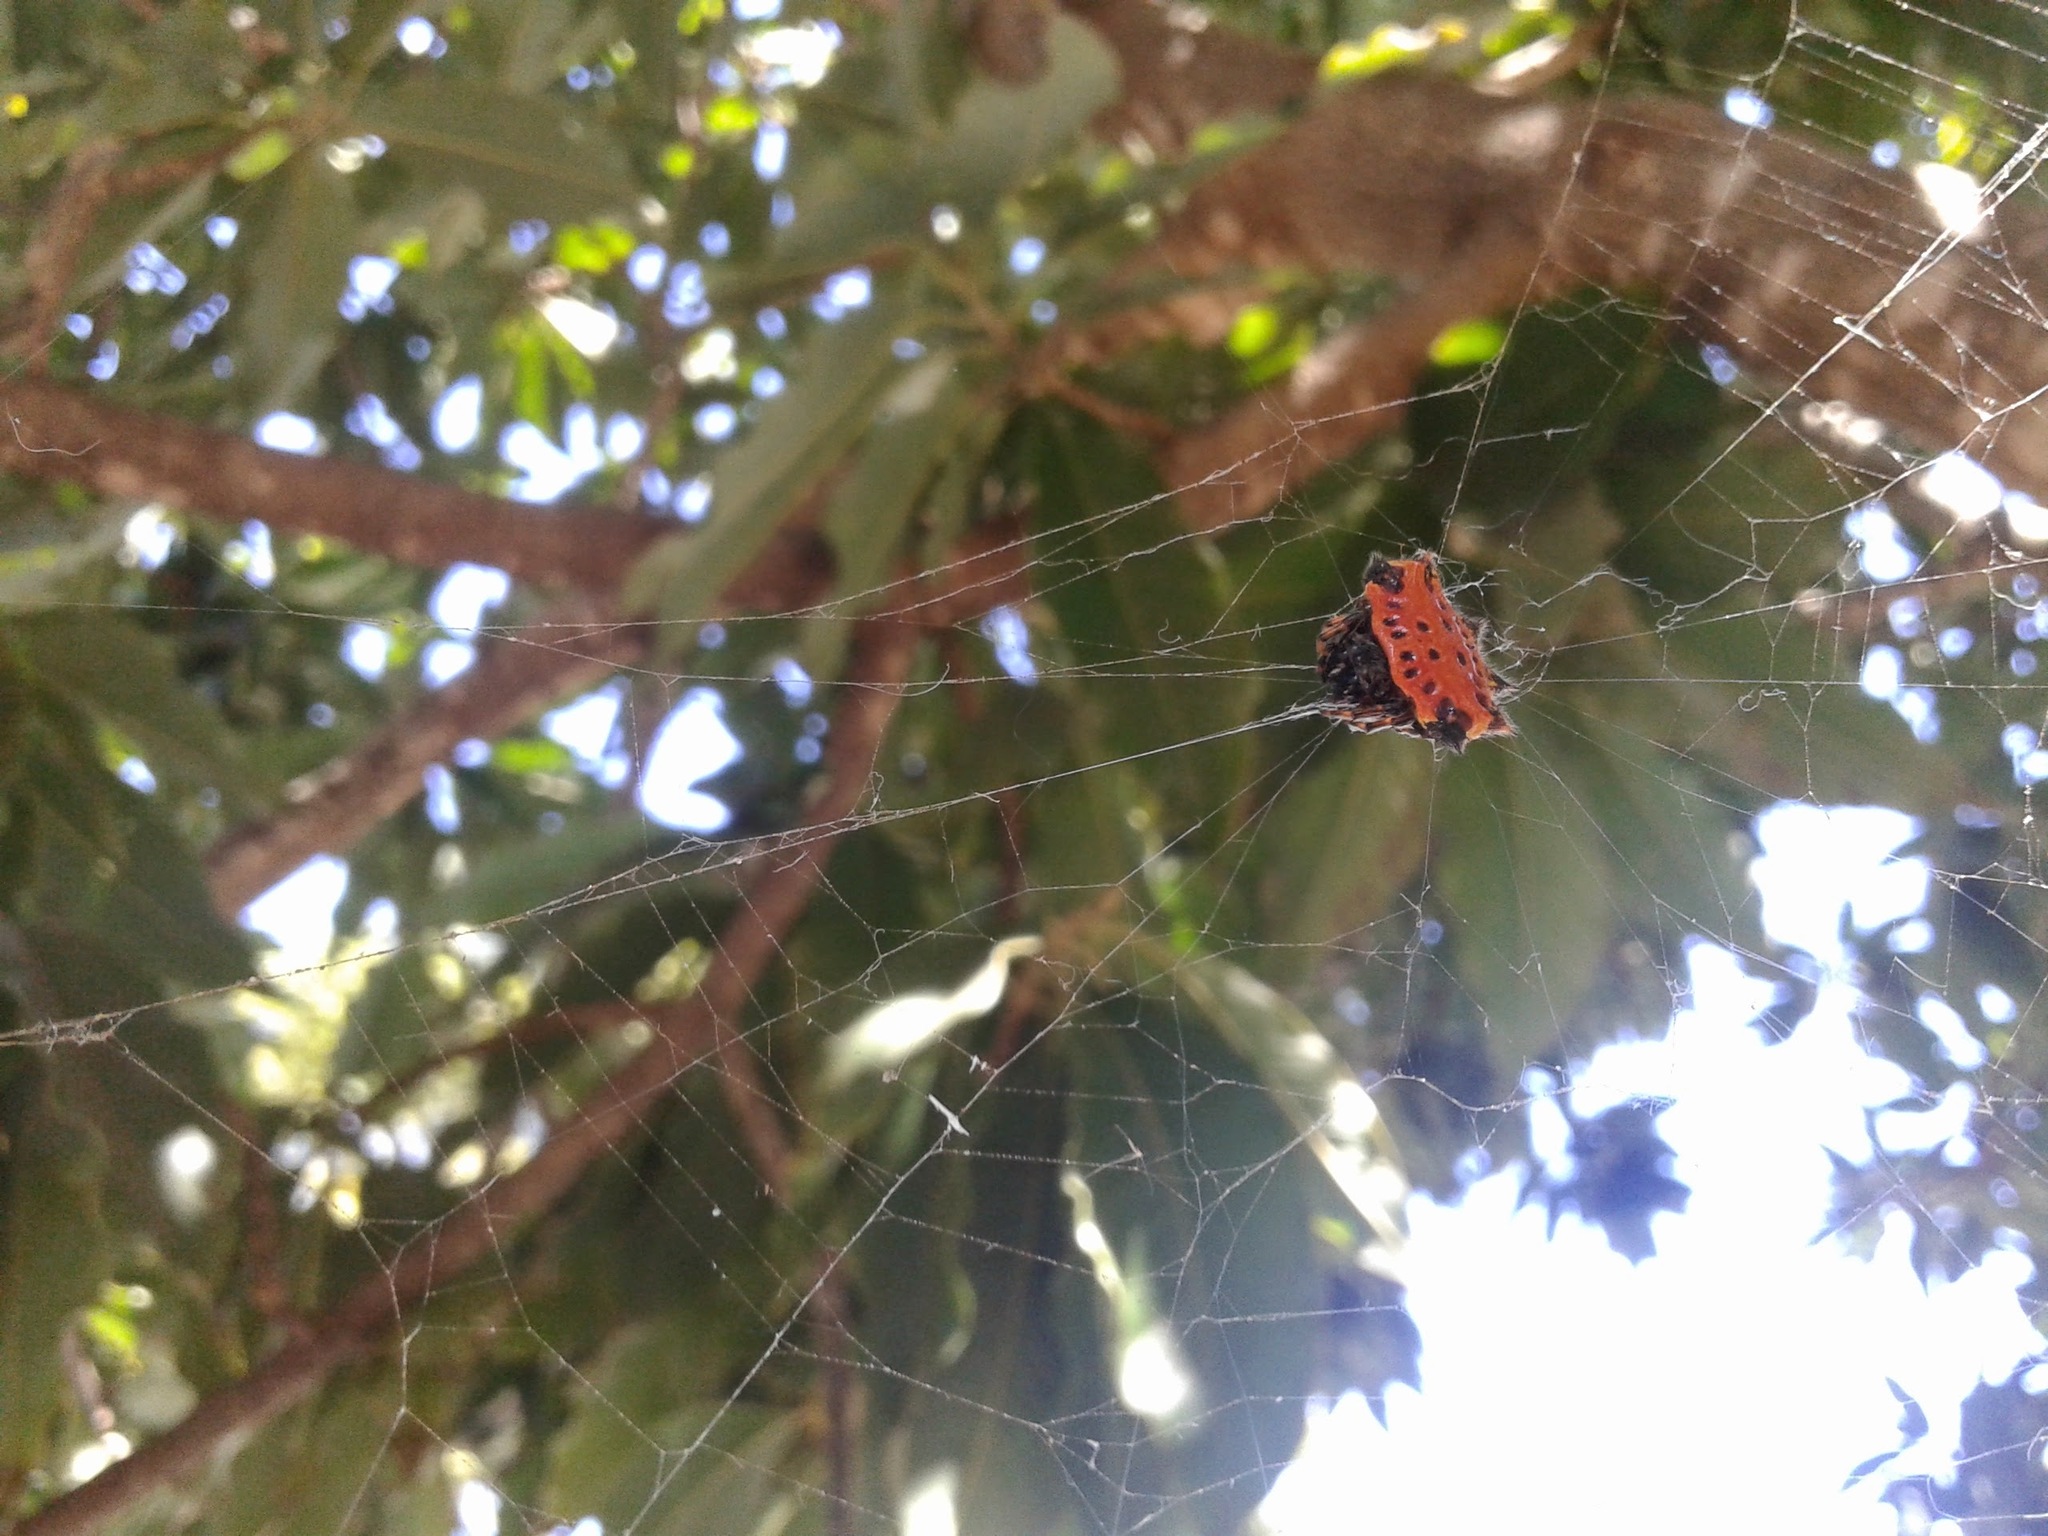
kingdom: Animalia
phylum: Arthropoda
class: Arachnida
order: Araneae
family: Araneidae
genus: Gasteracantha
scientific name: Gasteracantha cancriformis
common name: Orb weavers
